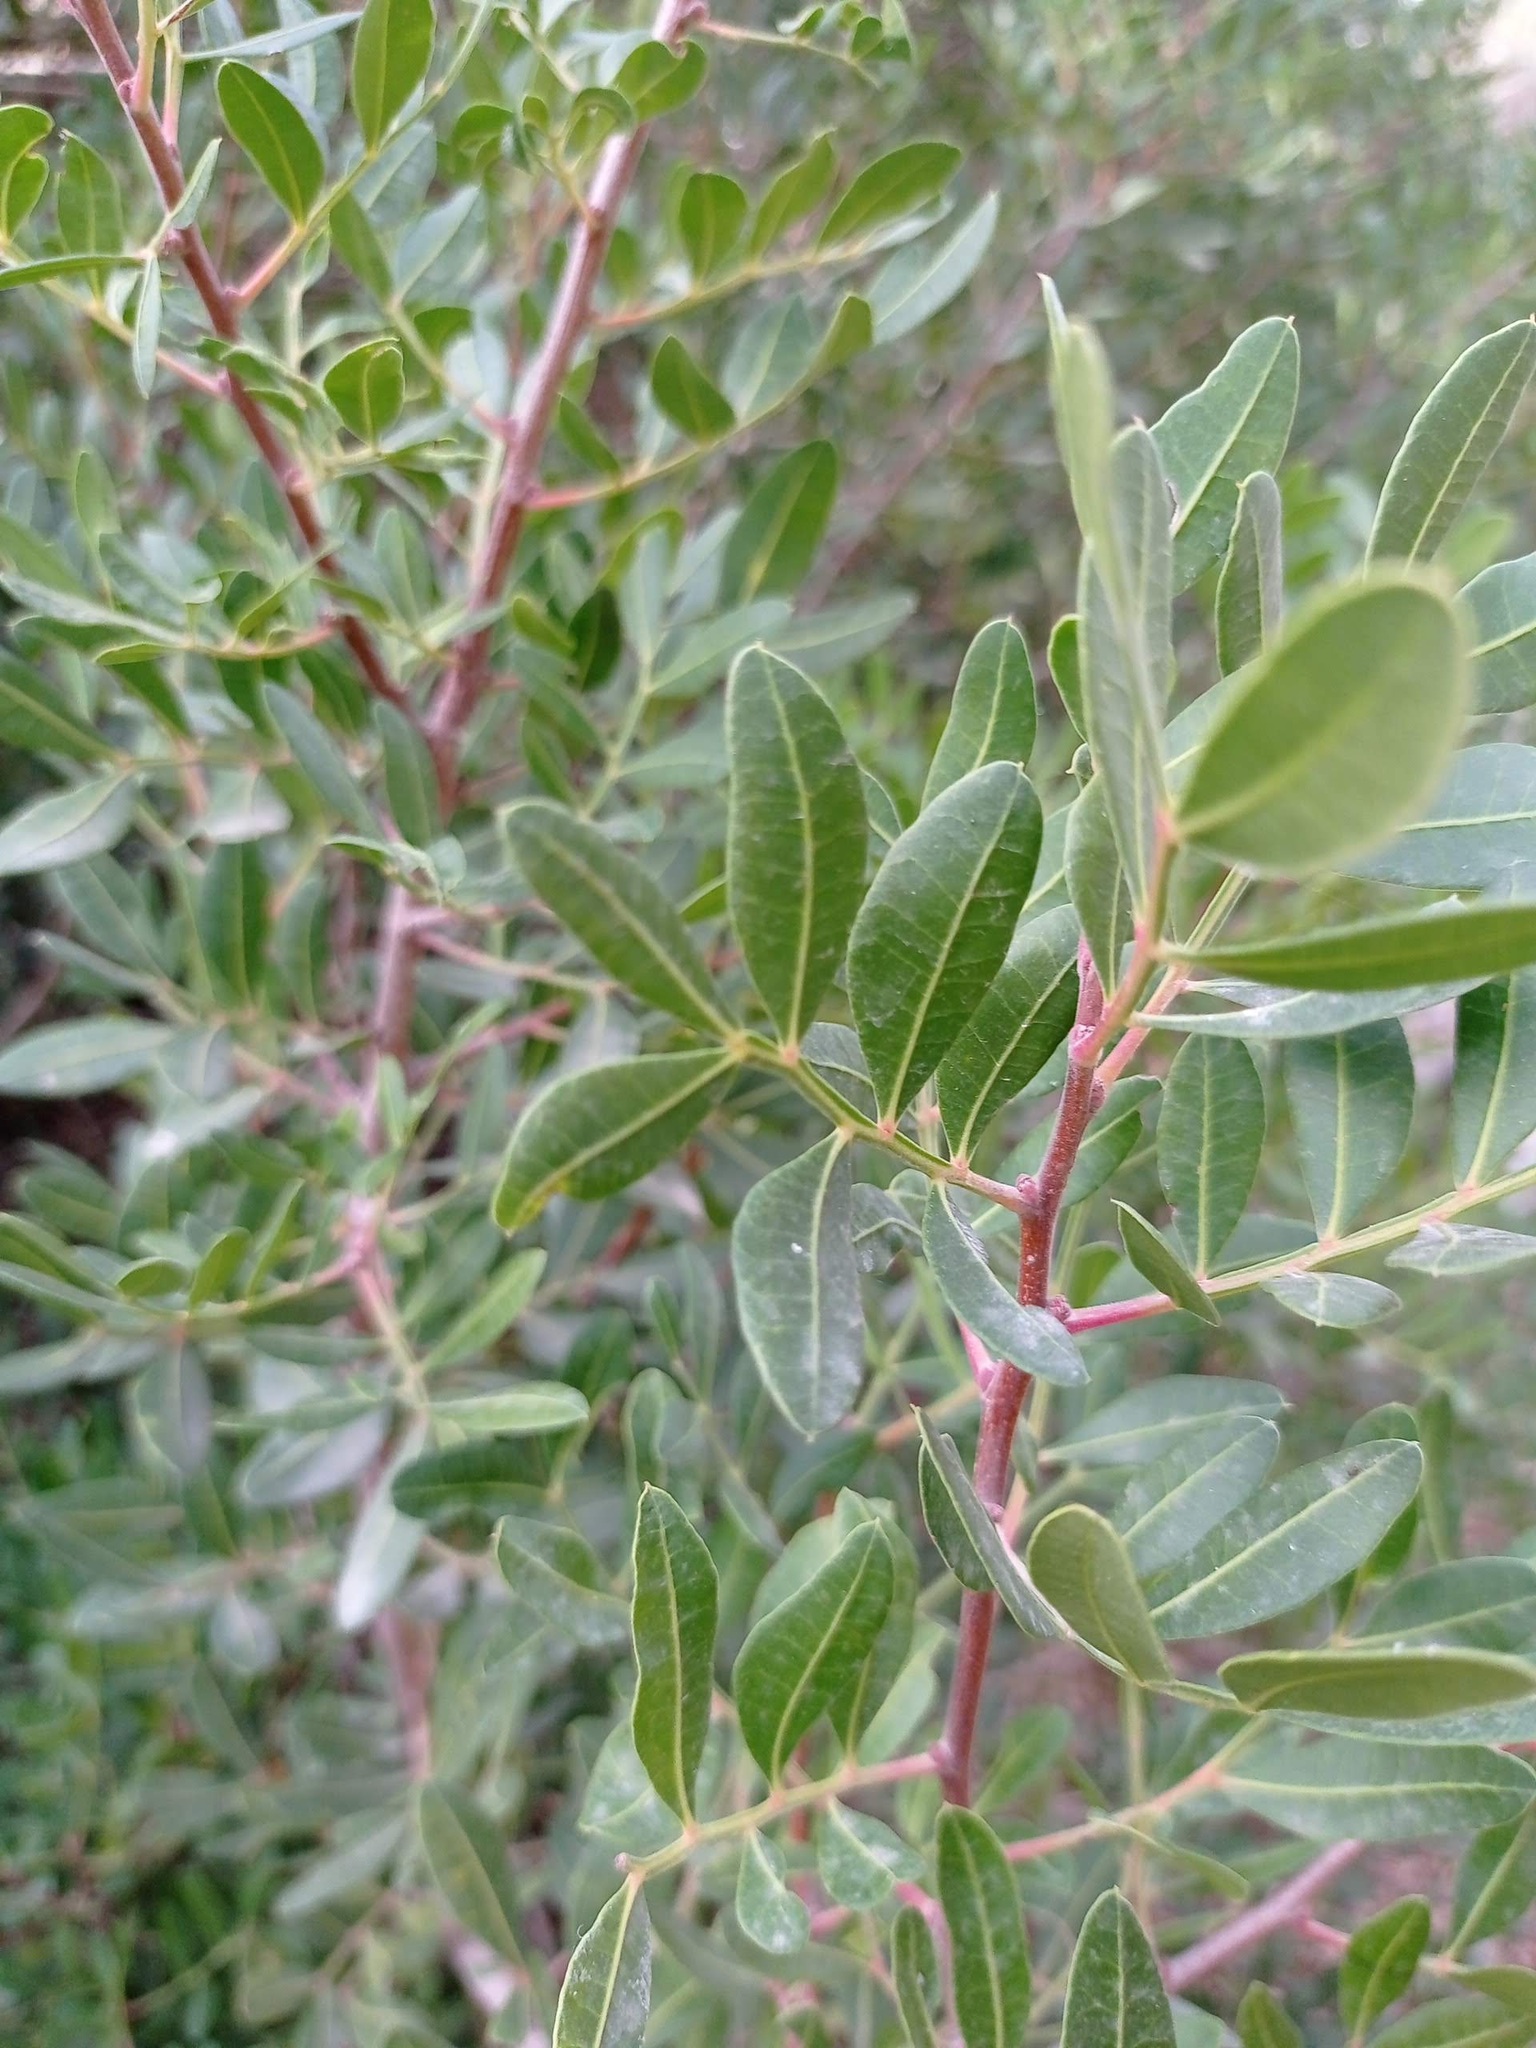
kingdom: Plantae
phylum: Tracheophyta
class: Magnoliopsida
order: Sapindales
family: Anacardiaceae
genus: Pistacia
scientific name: Pistacia lentiscus
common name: Lentisk
